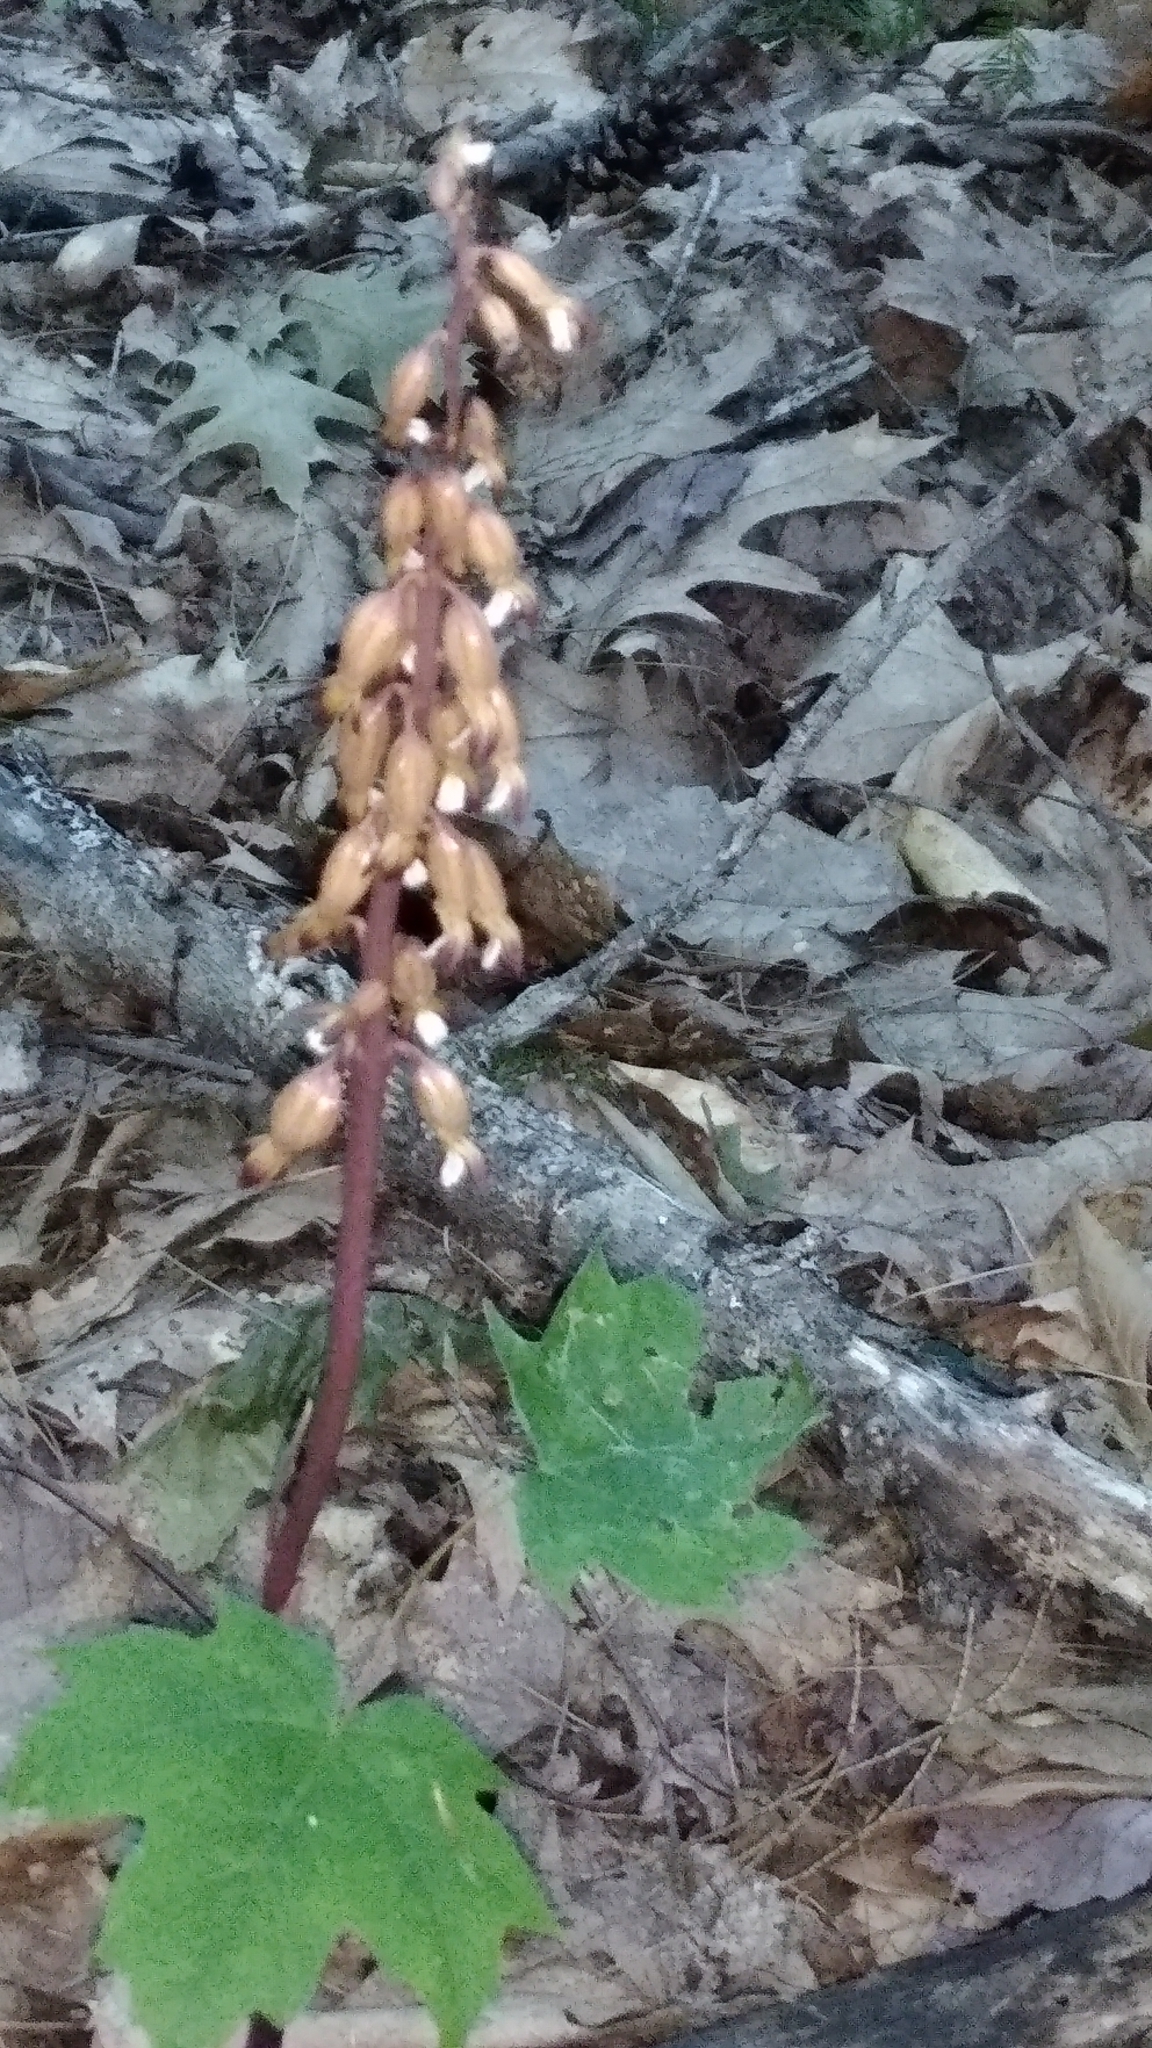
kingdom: Plantae
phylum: Tracheophyta
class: Liliopsida
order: Asparagales
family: Orchidaceae
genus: Corallorhiza
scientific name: Corallorhiza maculata
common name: Spotted coralroot
